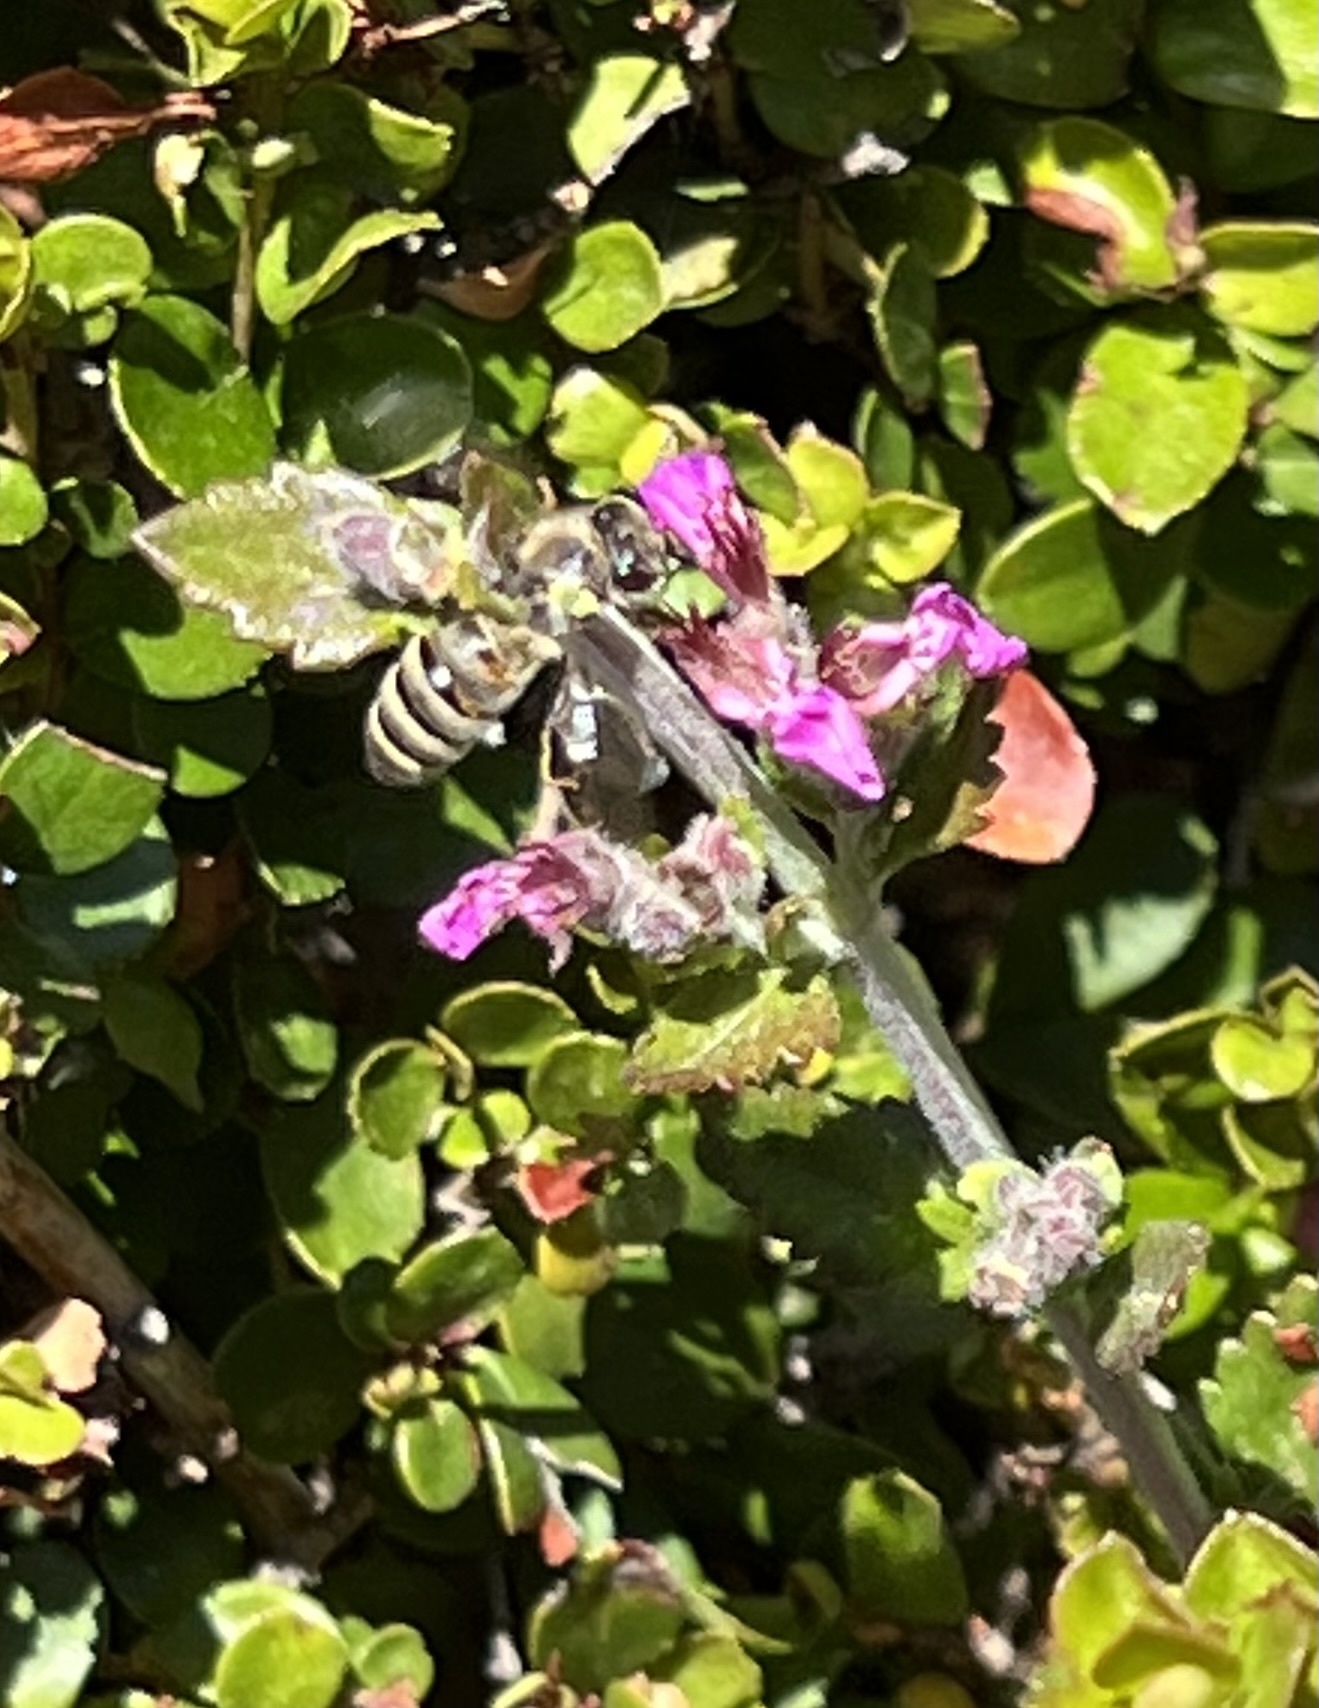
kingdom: Animalia
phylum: Arthropoda
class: Insecta
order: Hymenoptera
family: Apidae
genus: Apis
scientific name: Apis mellifera
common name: Honey bee
